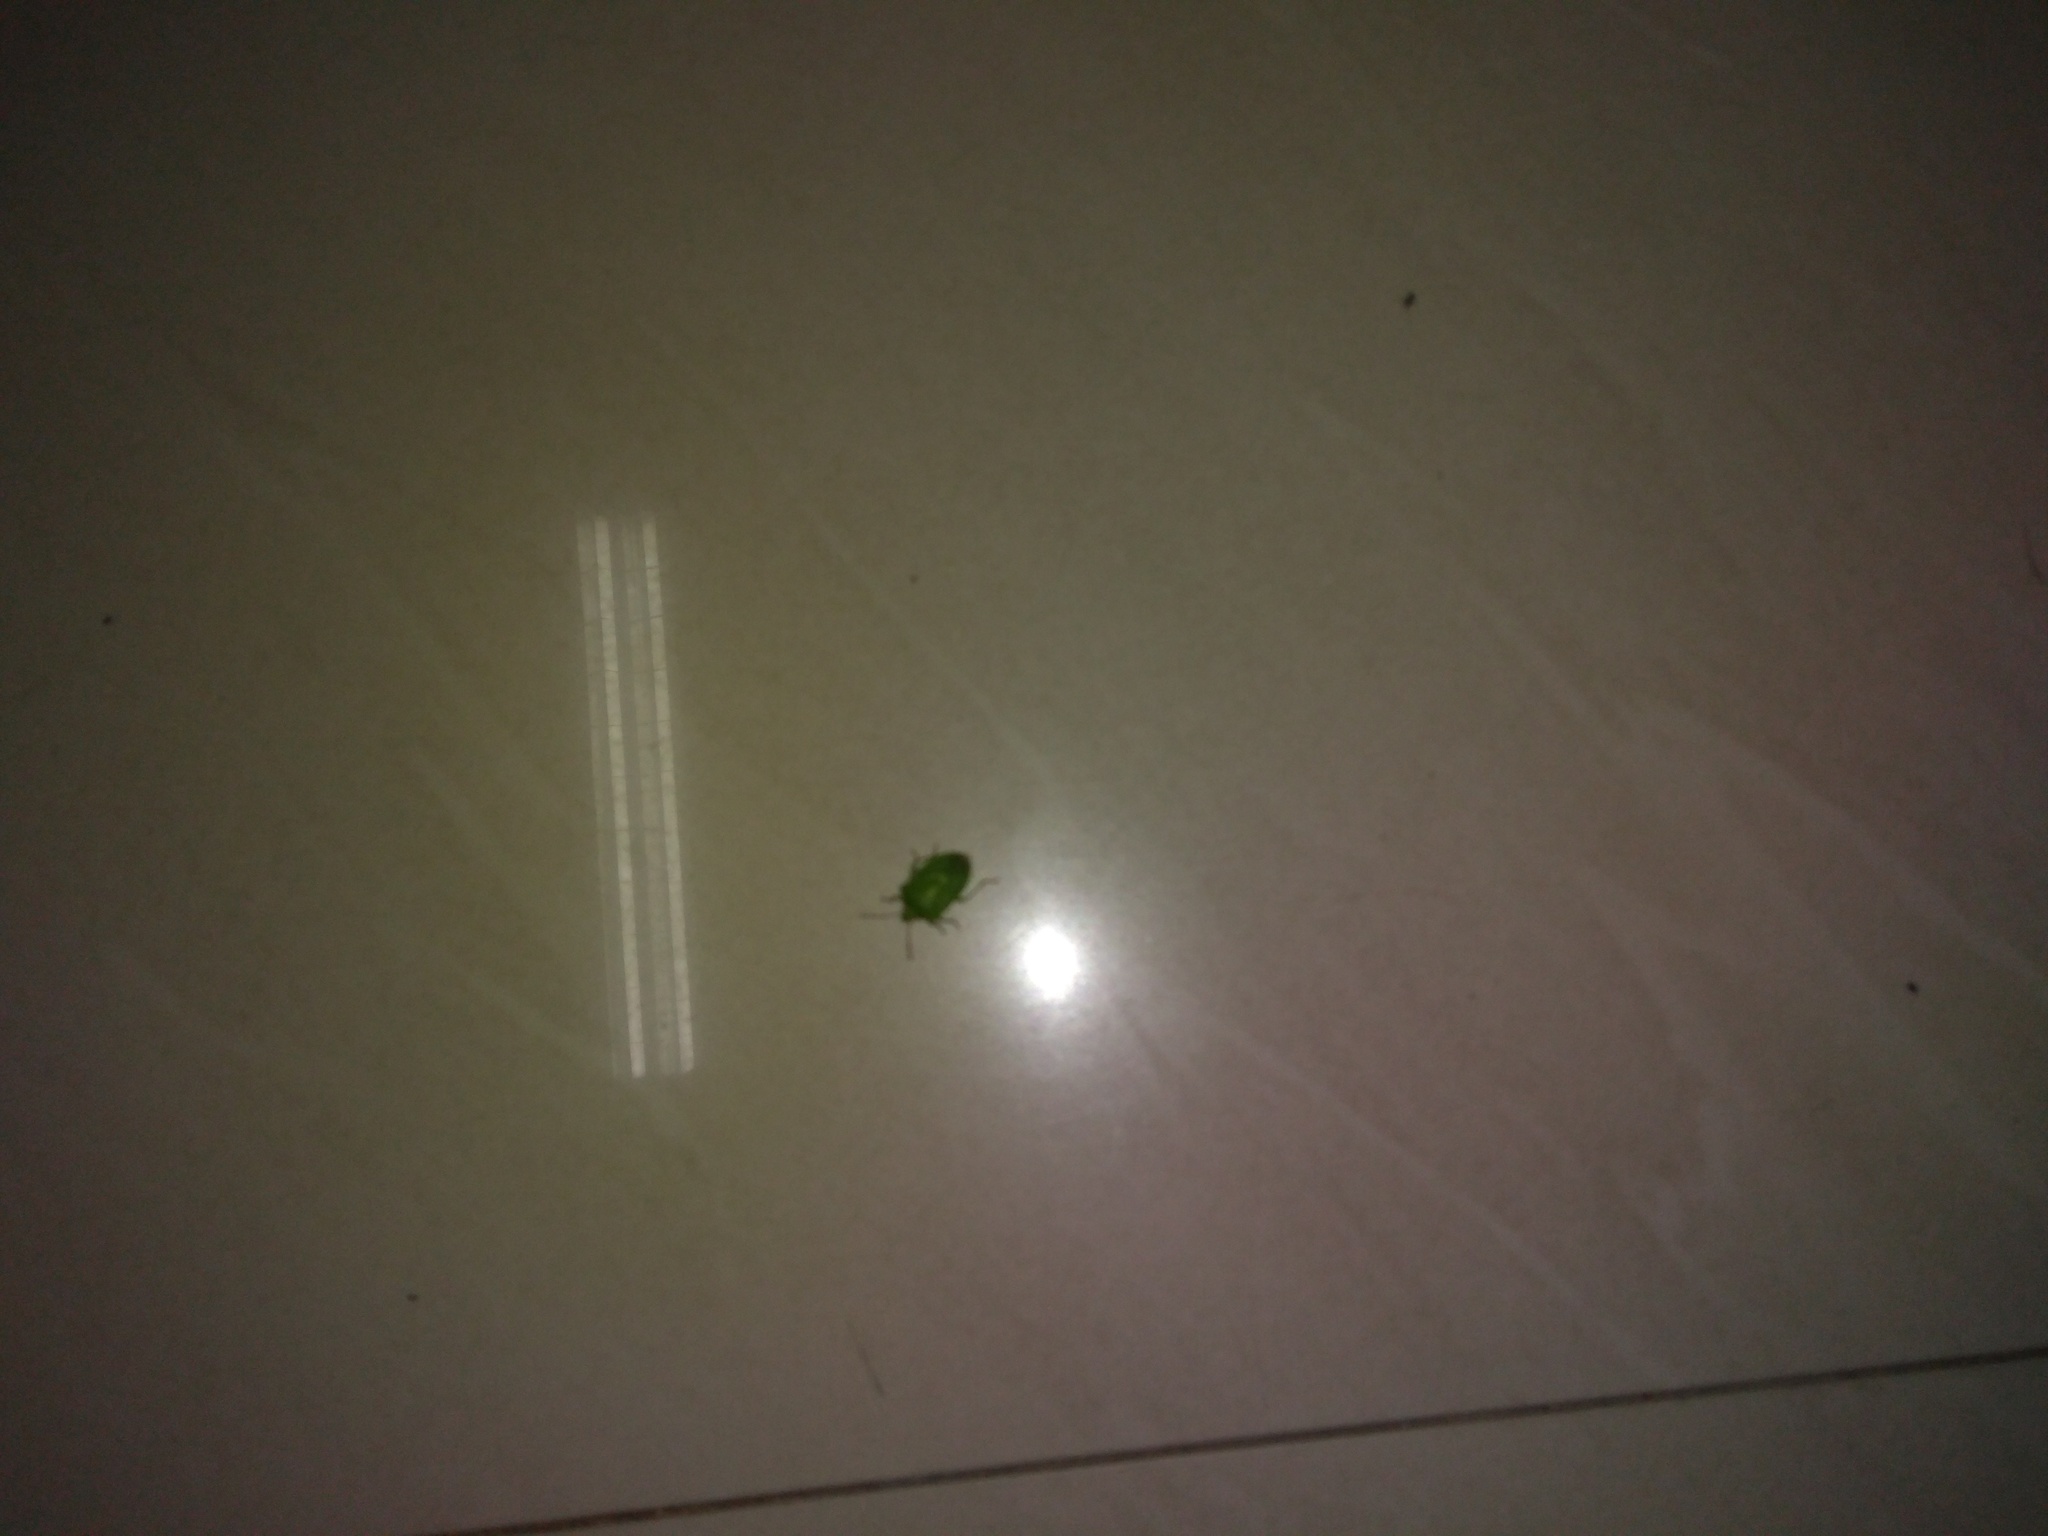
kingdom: Animalia
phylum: Arthropoda
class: Insecta
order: Lepidoptera
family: Limacodidae
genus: Miresa
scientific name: Miresa albipuncta
